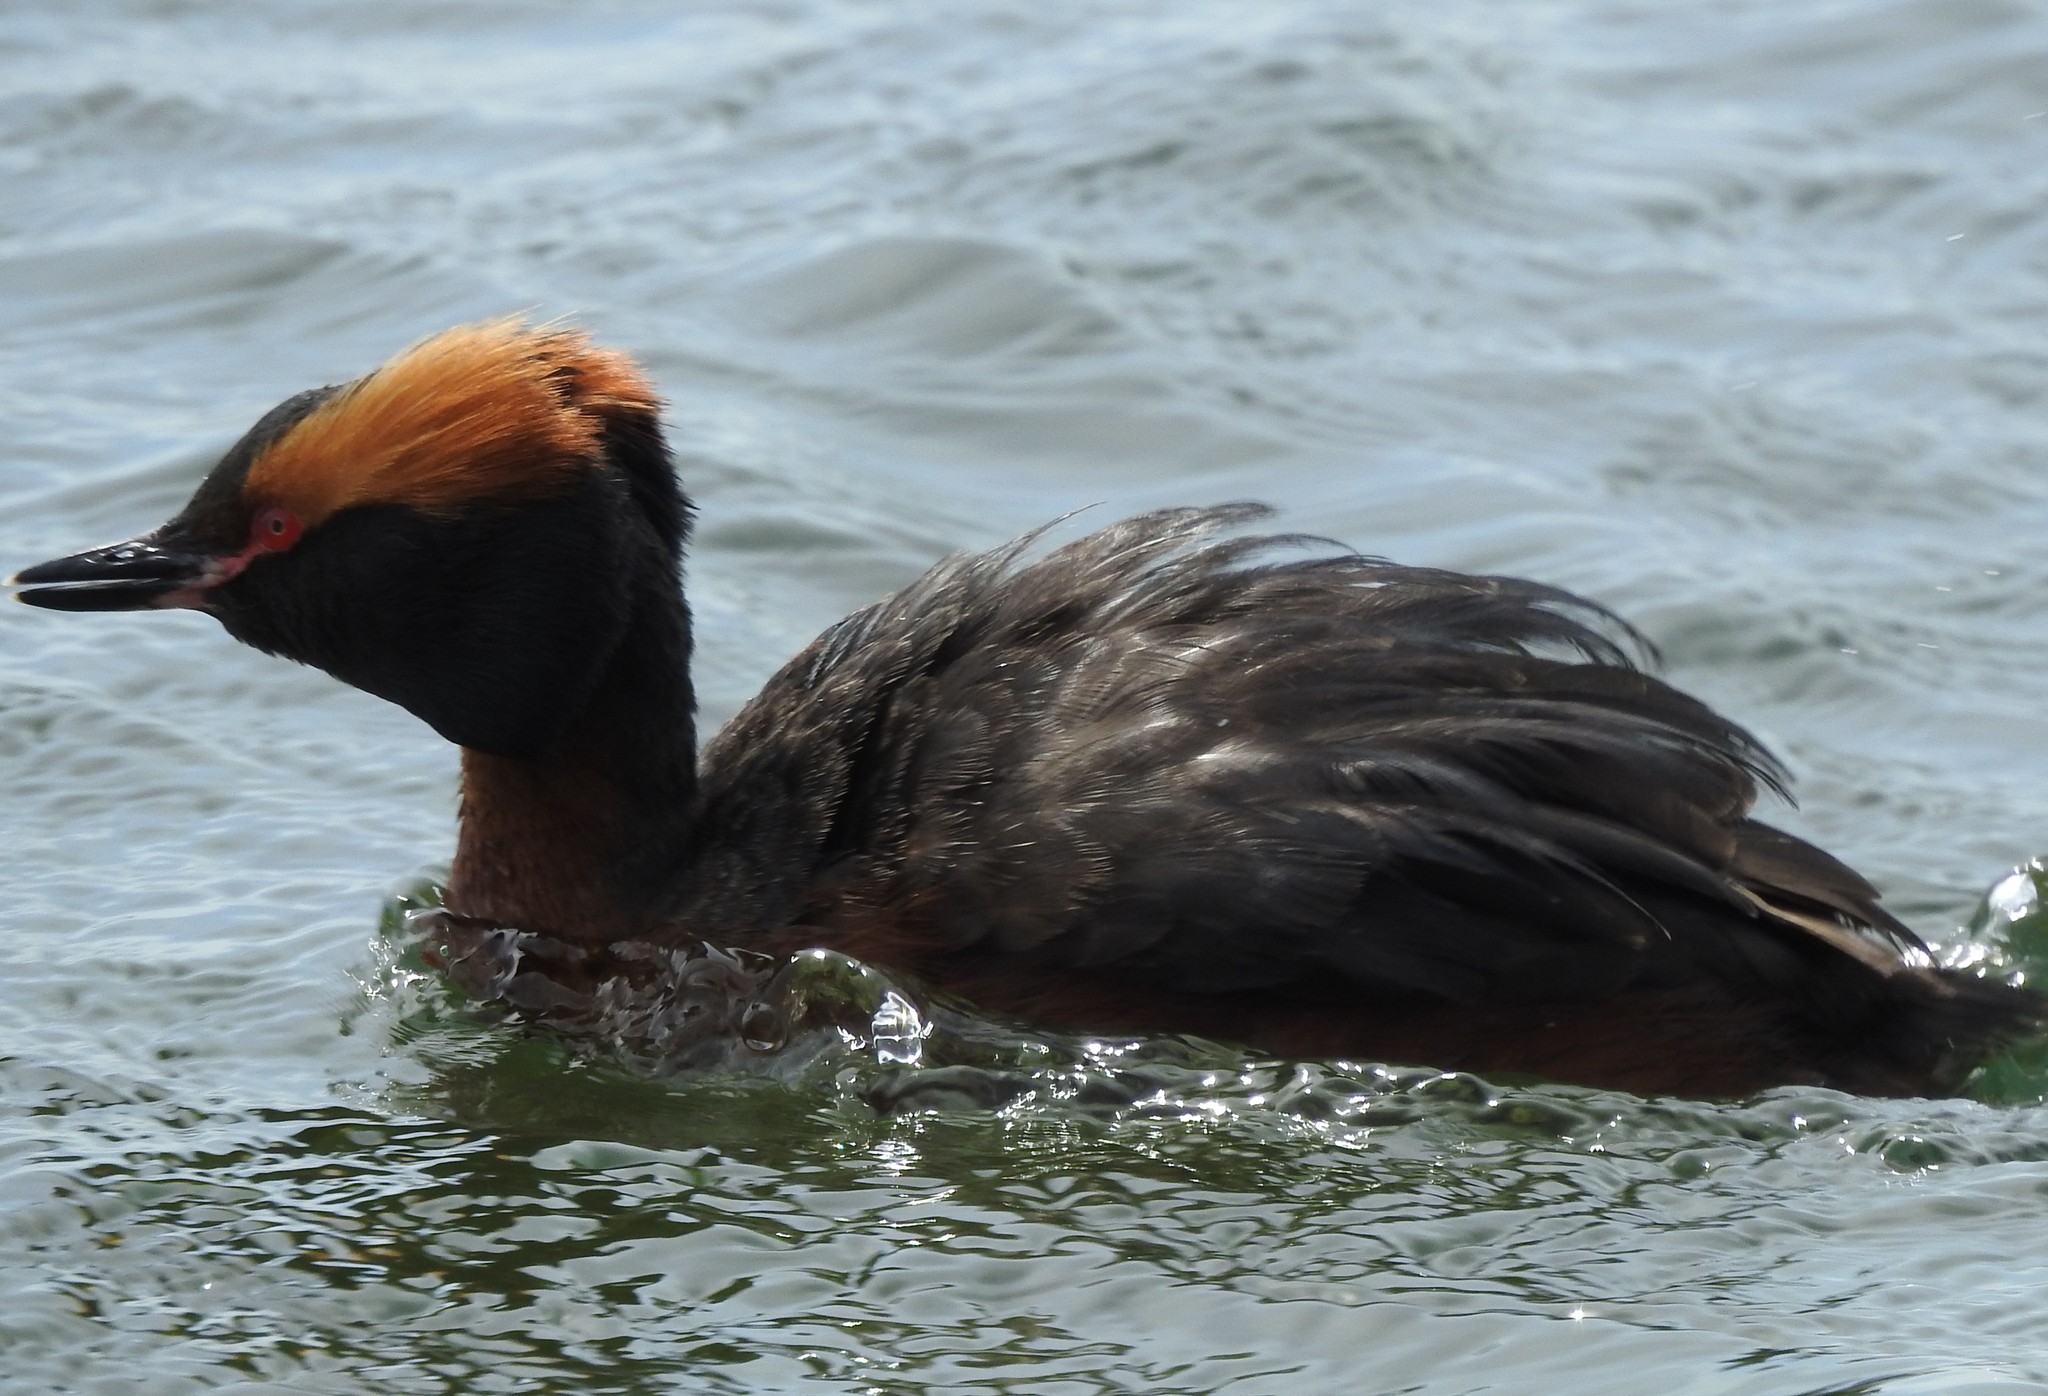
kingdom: Animalia
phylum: Chordata
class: Aves
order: Podicipediformes
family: Podicipedidae
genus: Podiceps
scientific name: Podiceps auritus
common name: Horned grebe
